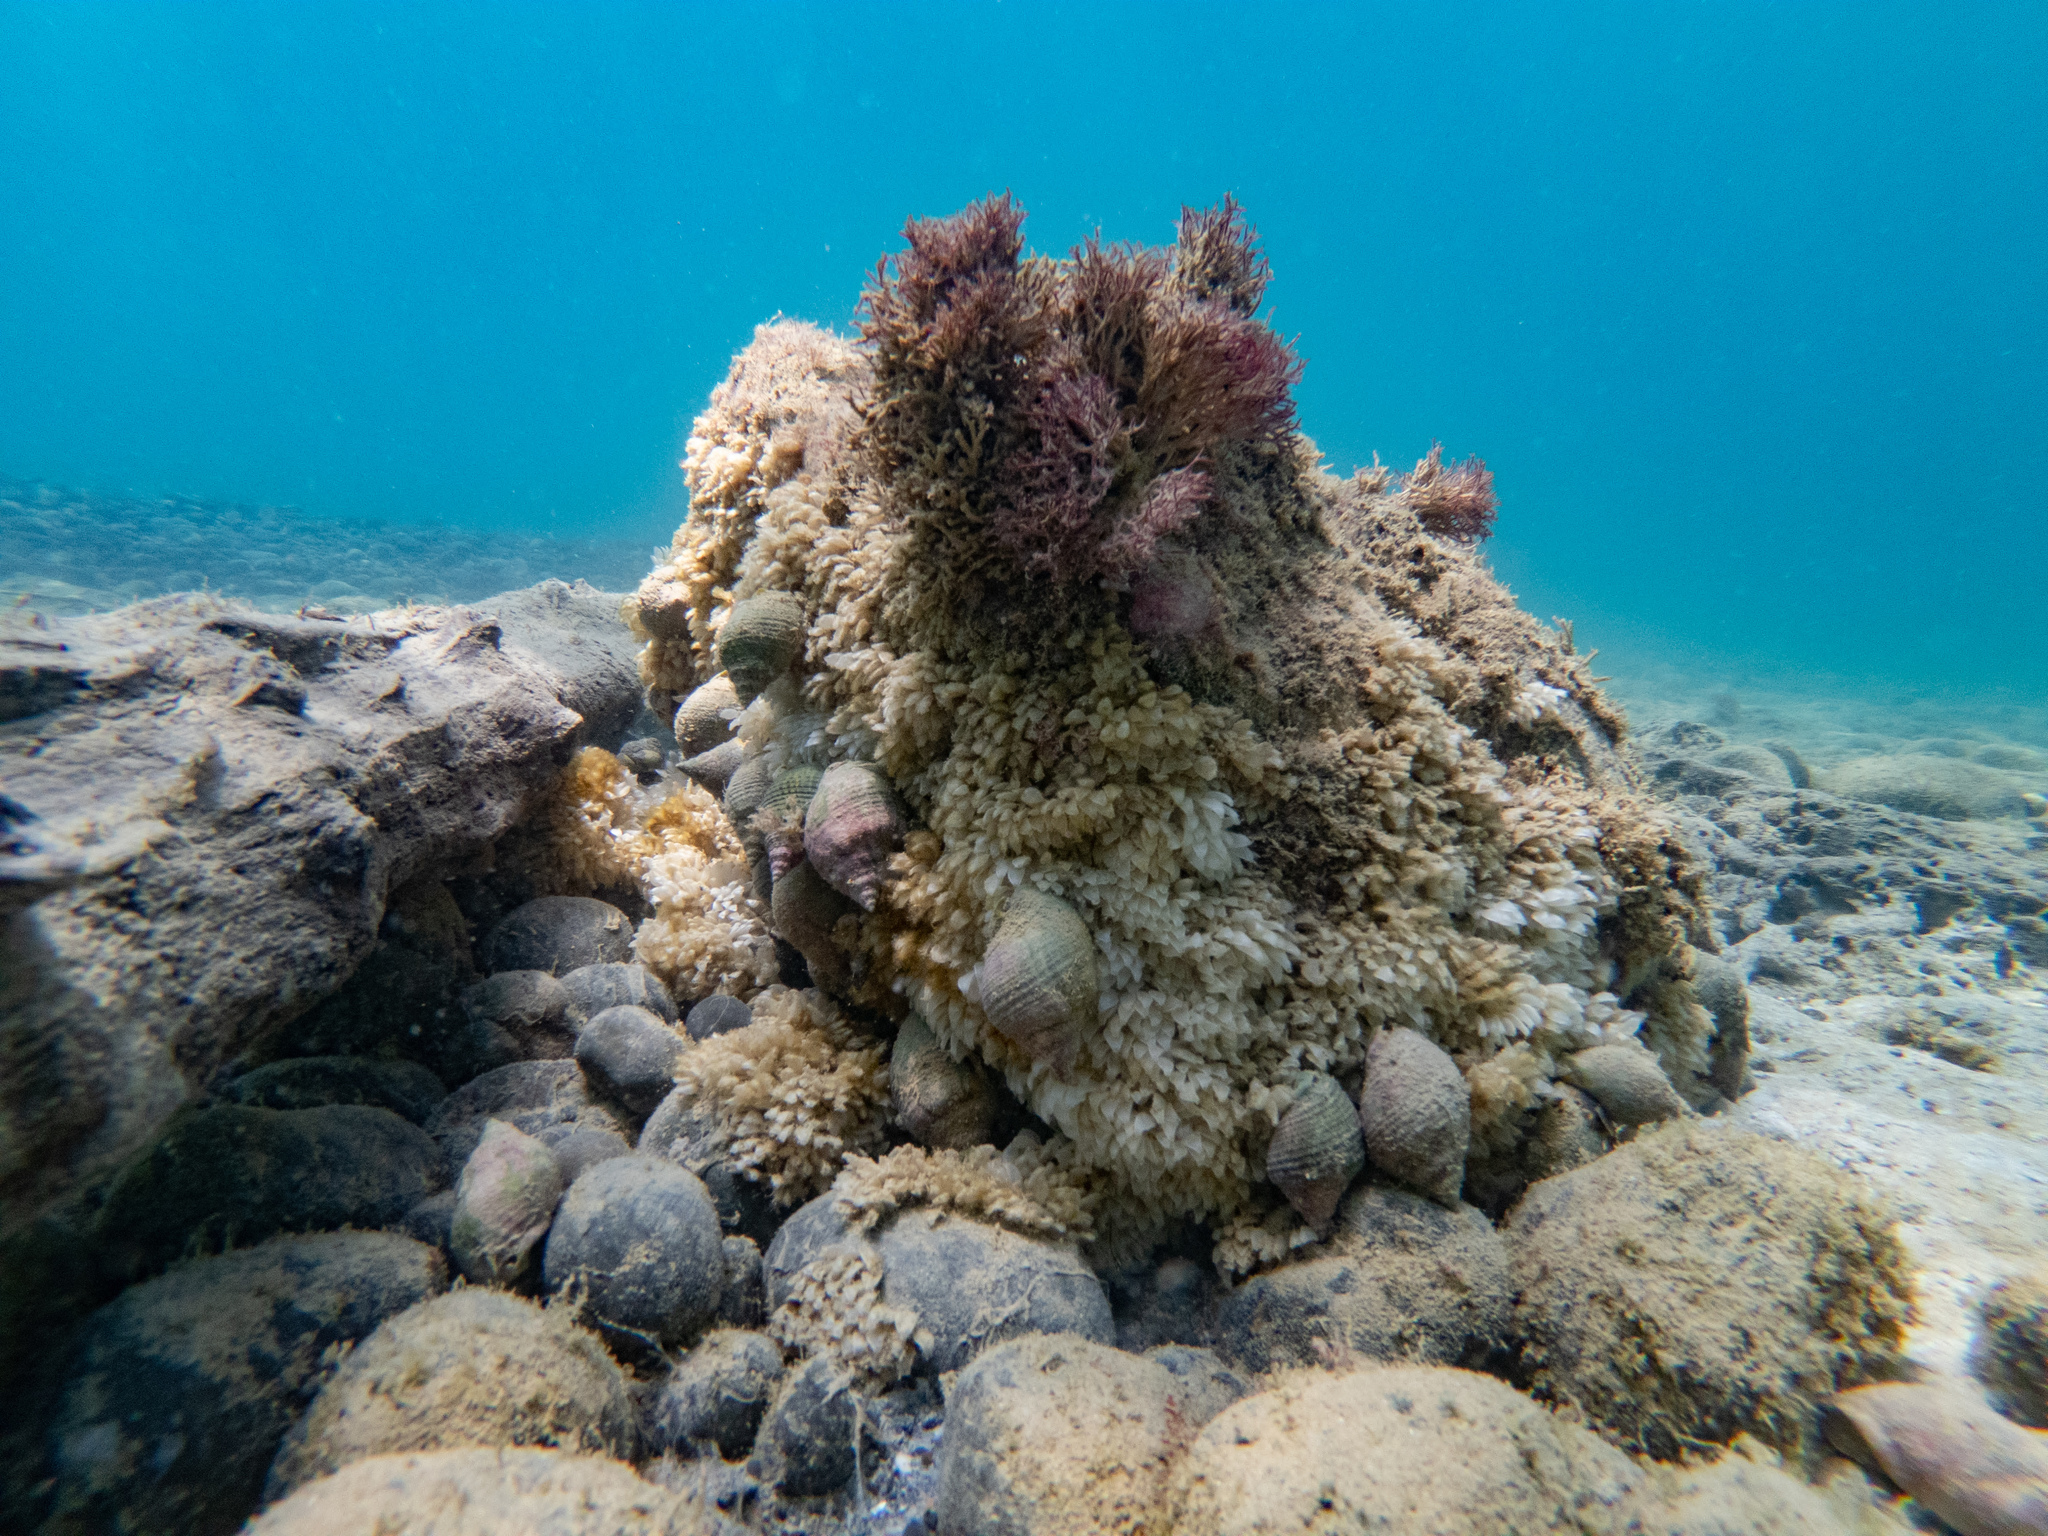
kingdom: Animalia
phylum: Mollusca
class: Gastropoda
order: Neogastropoda
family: Cominellidae
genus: Cominella
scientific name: Cominella adspersa
